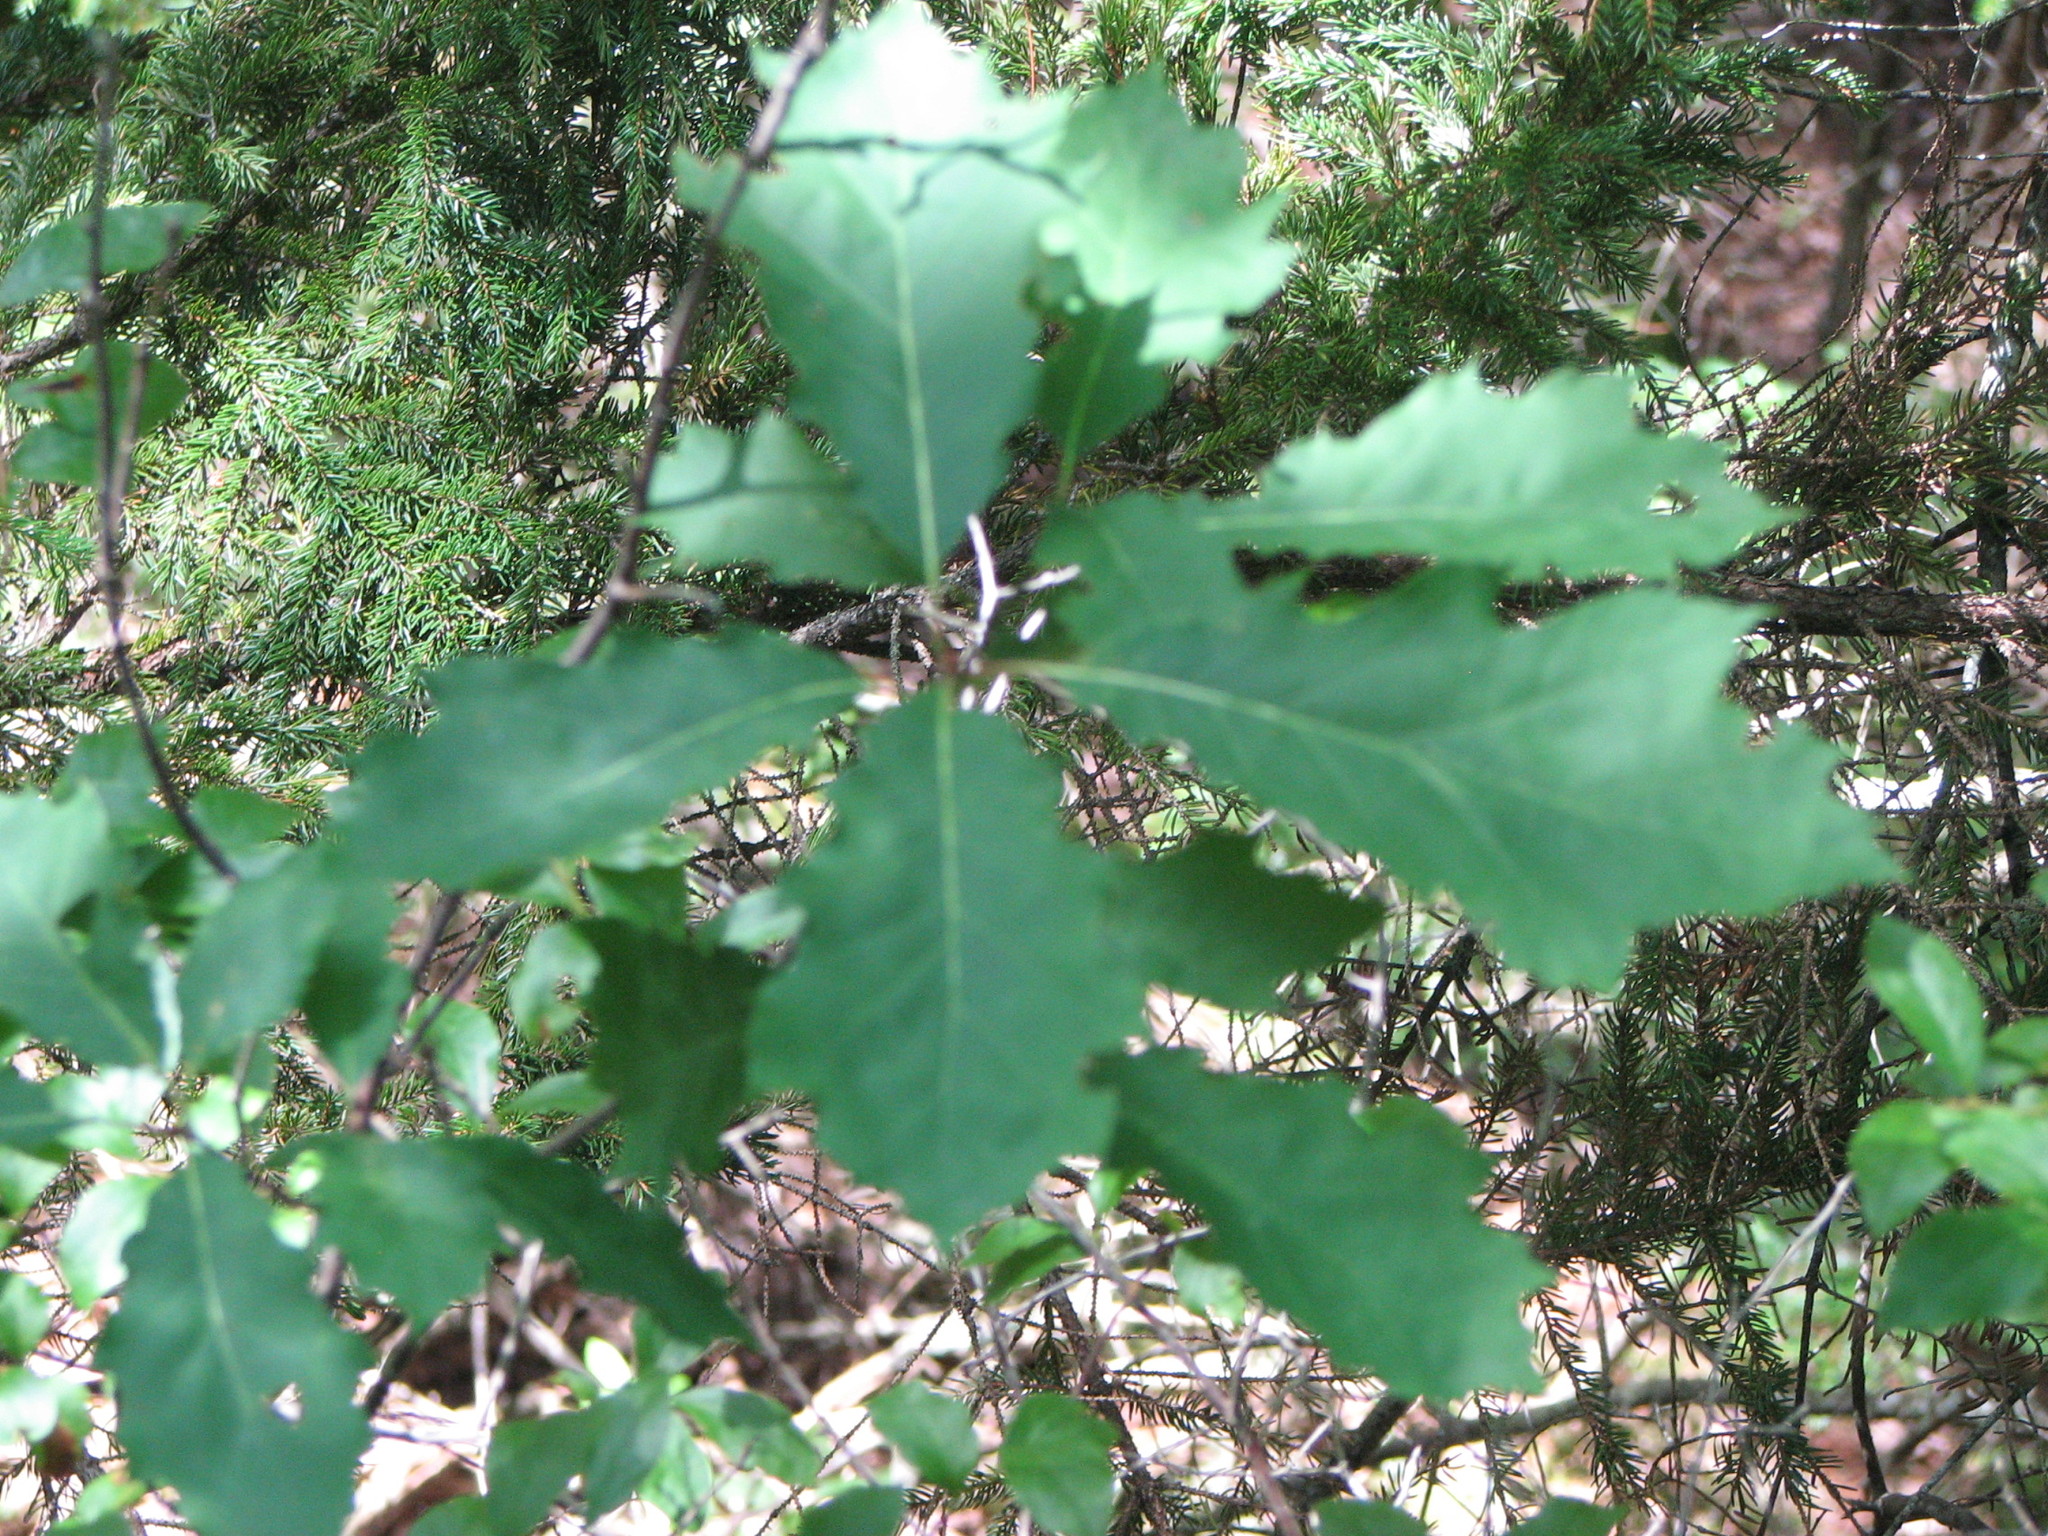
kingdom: Plantae
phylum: Tracheophyta
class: Magnoliopsida
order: Fagales
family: Fagaceae
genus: Quercus
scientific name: Quercus rubra
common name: Red oak
